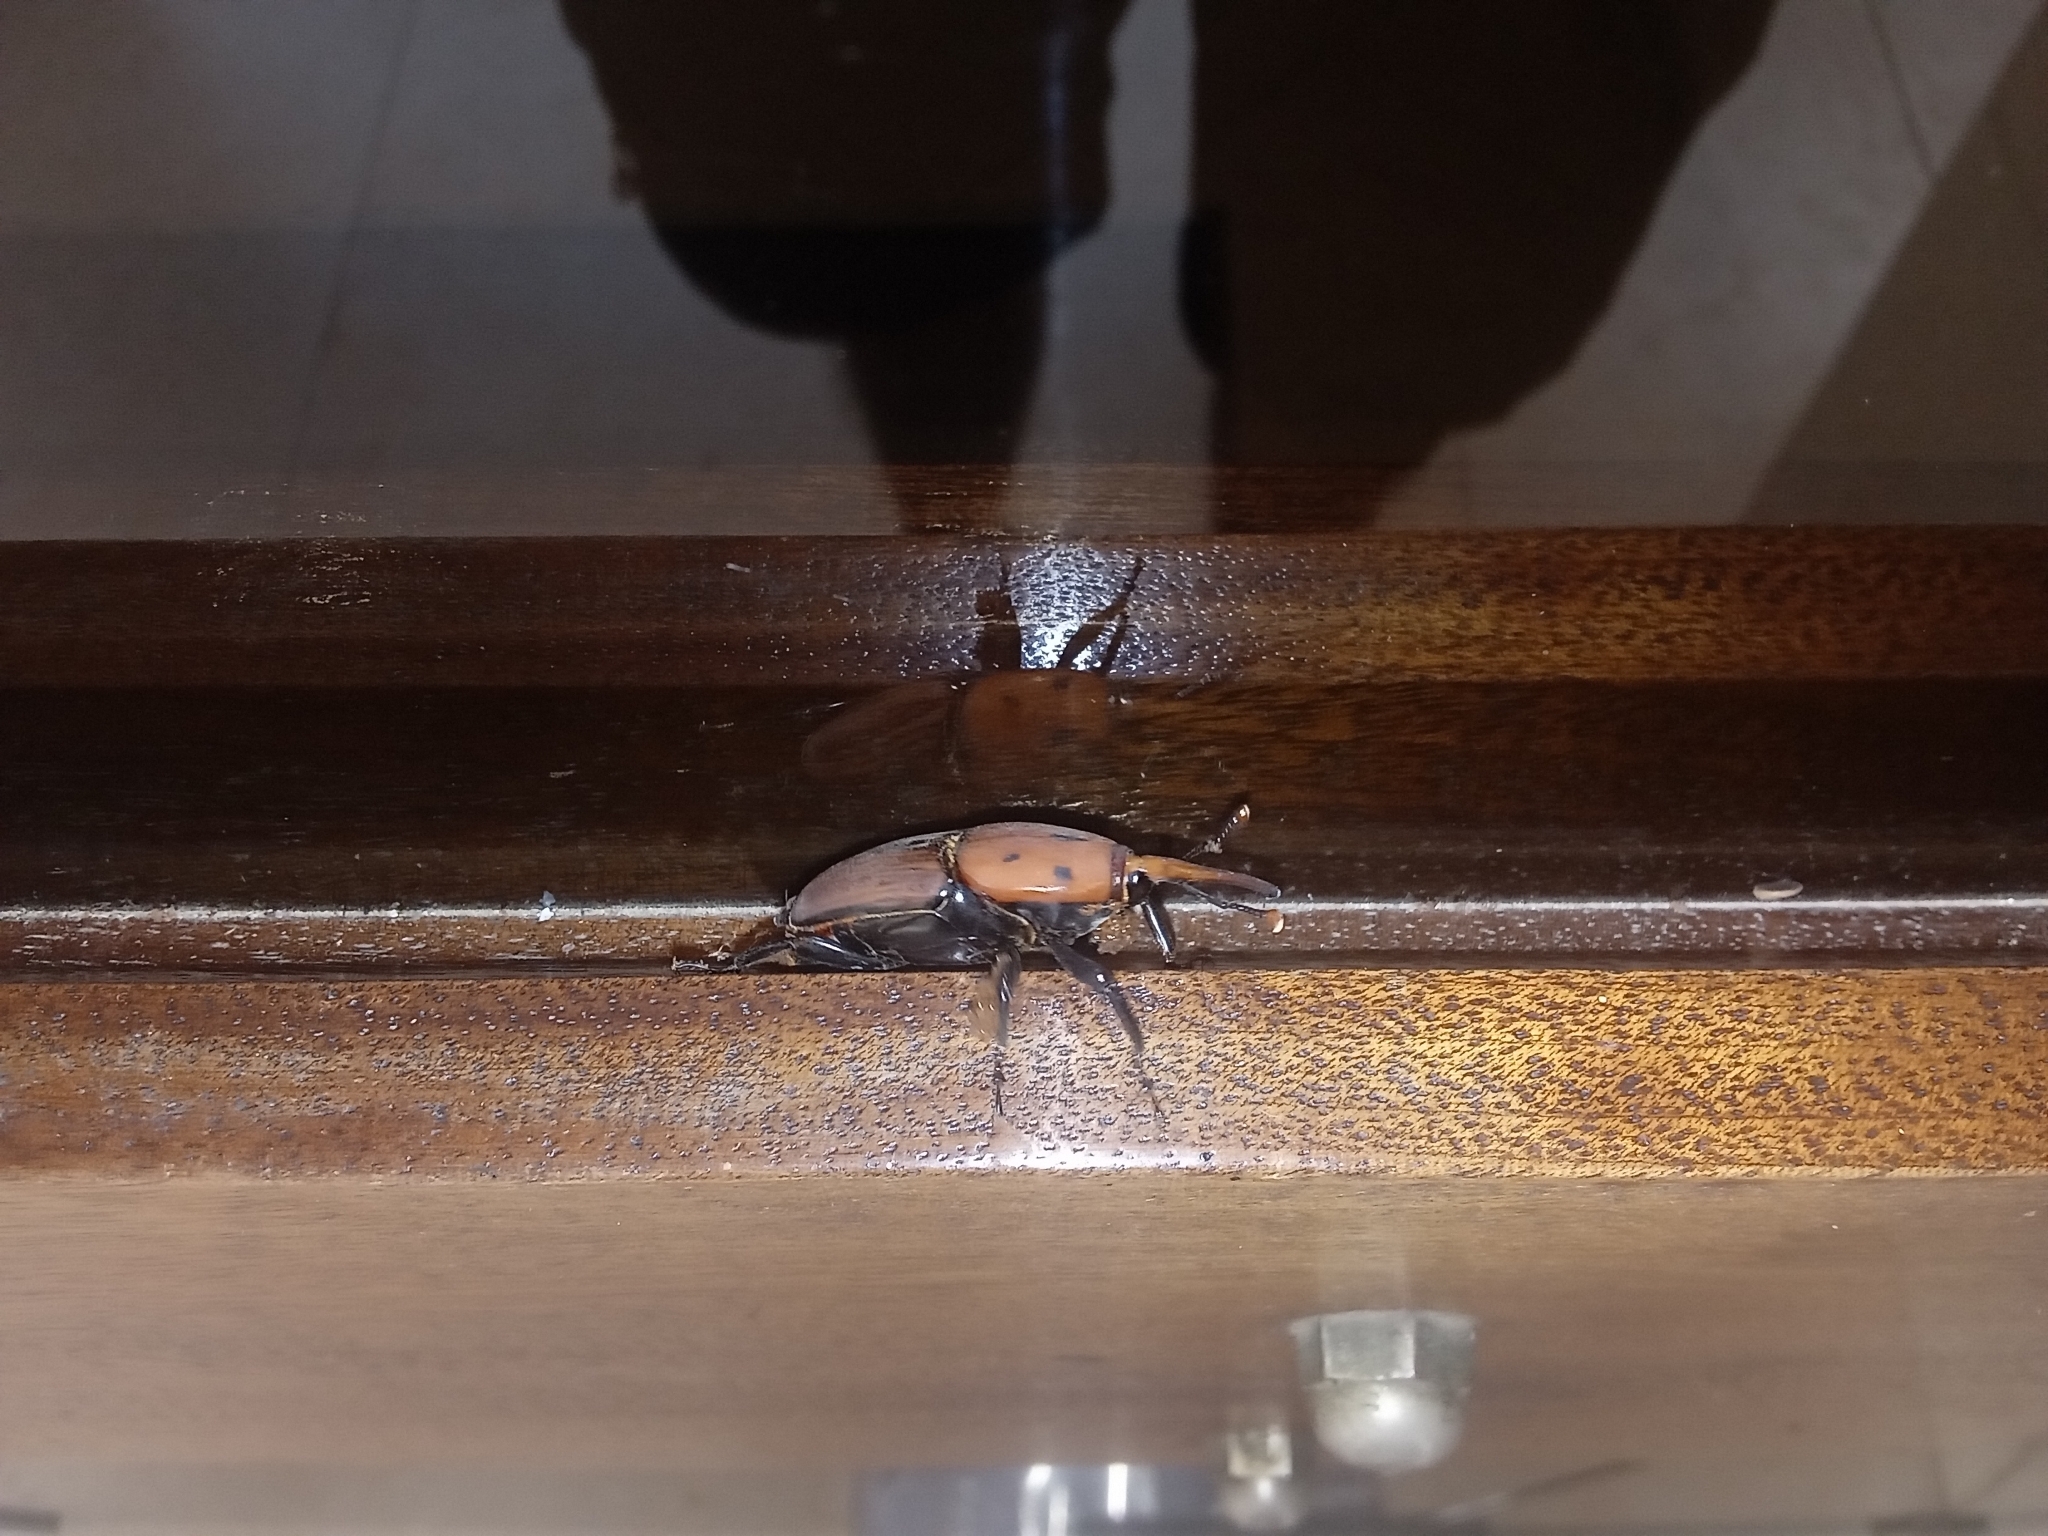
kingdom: Animalia
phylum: Arthropoda
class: Insecta
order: Coleoptera
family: Dryophthoridae
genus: Rhynchophorus
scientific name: Rhynchophorus ferrugineus
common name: Red palm weevil
